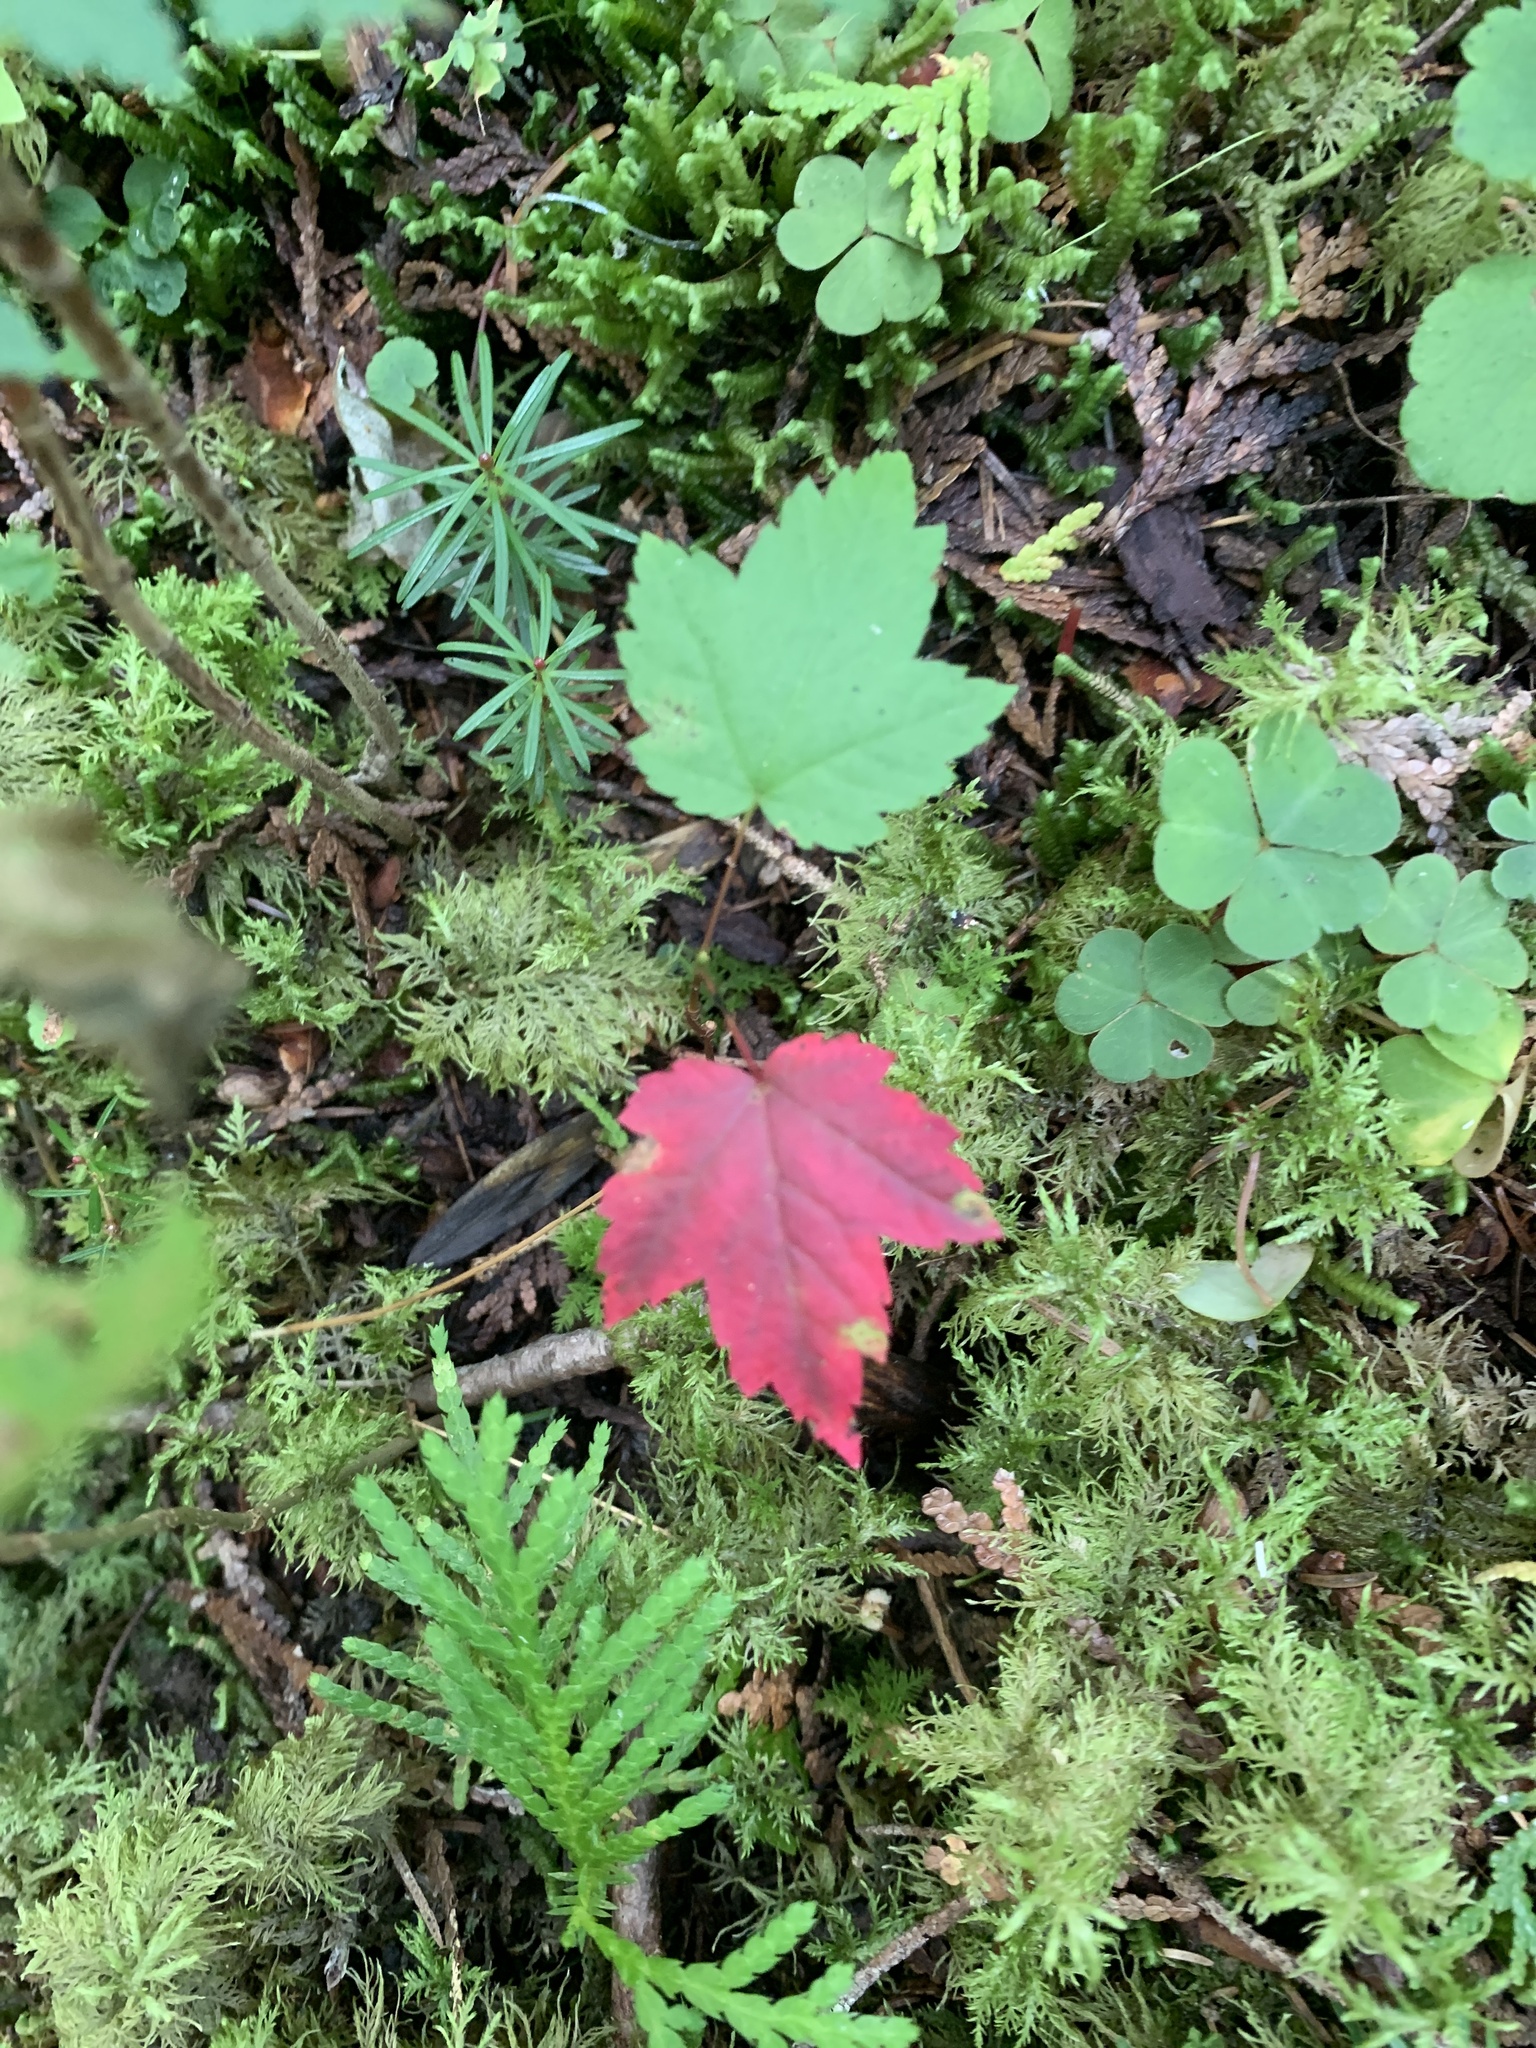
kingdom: Plantae
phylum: Tracheophyta
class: Magnoliopsida
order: Sapindales
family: Sapindaceae
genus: Acer
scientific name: Acer rubrum
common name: Red maple
